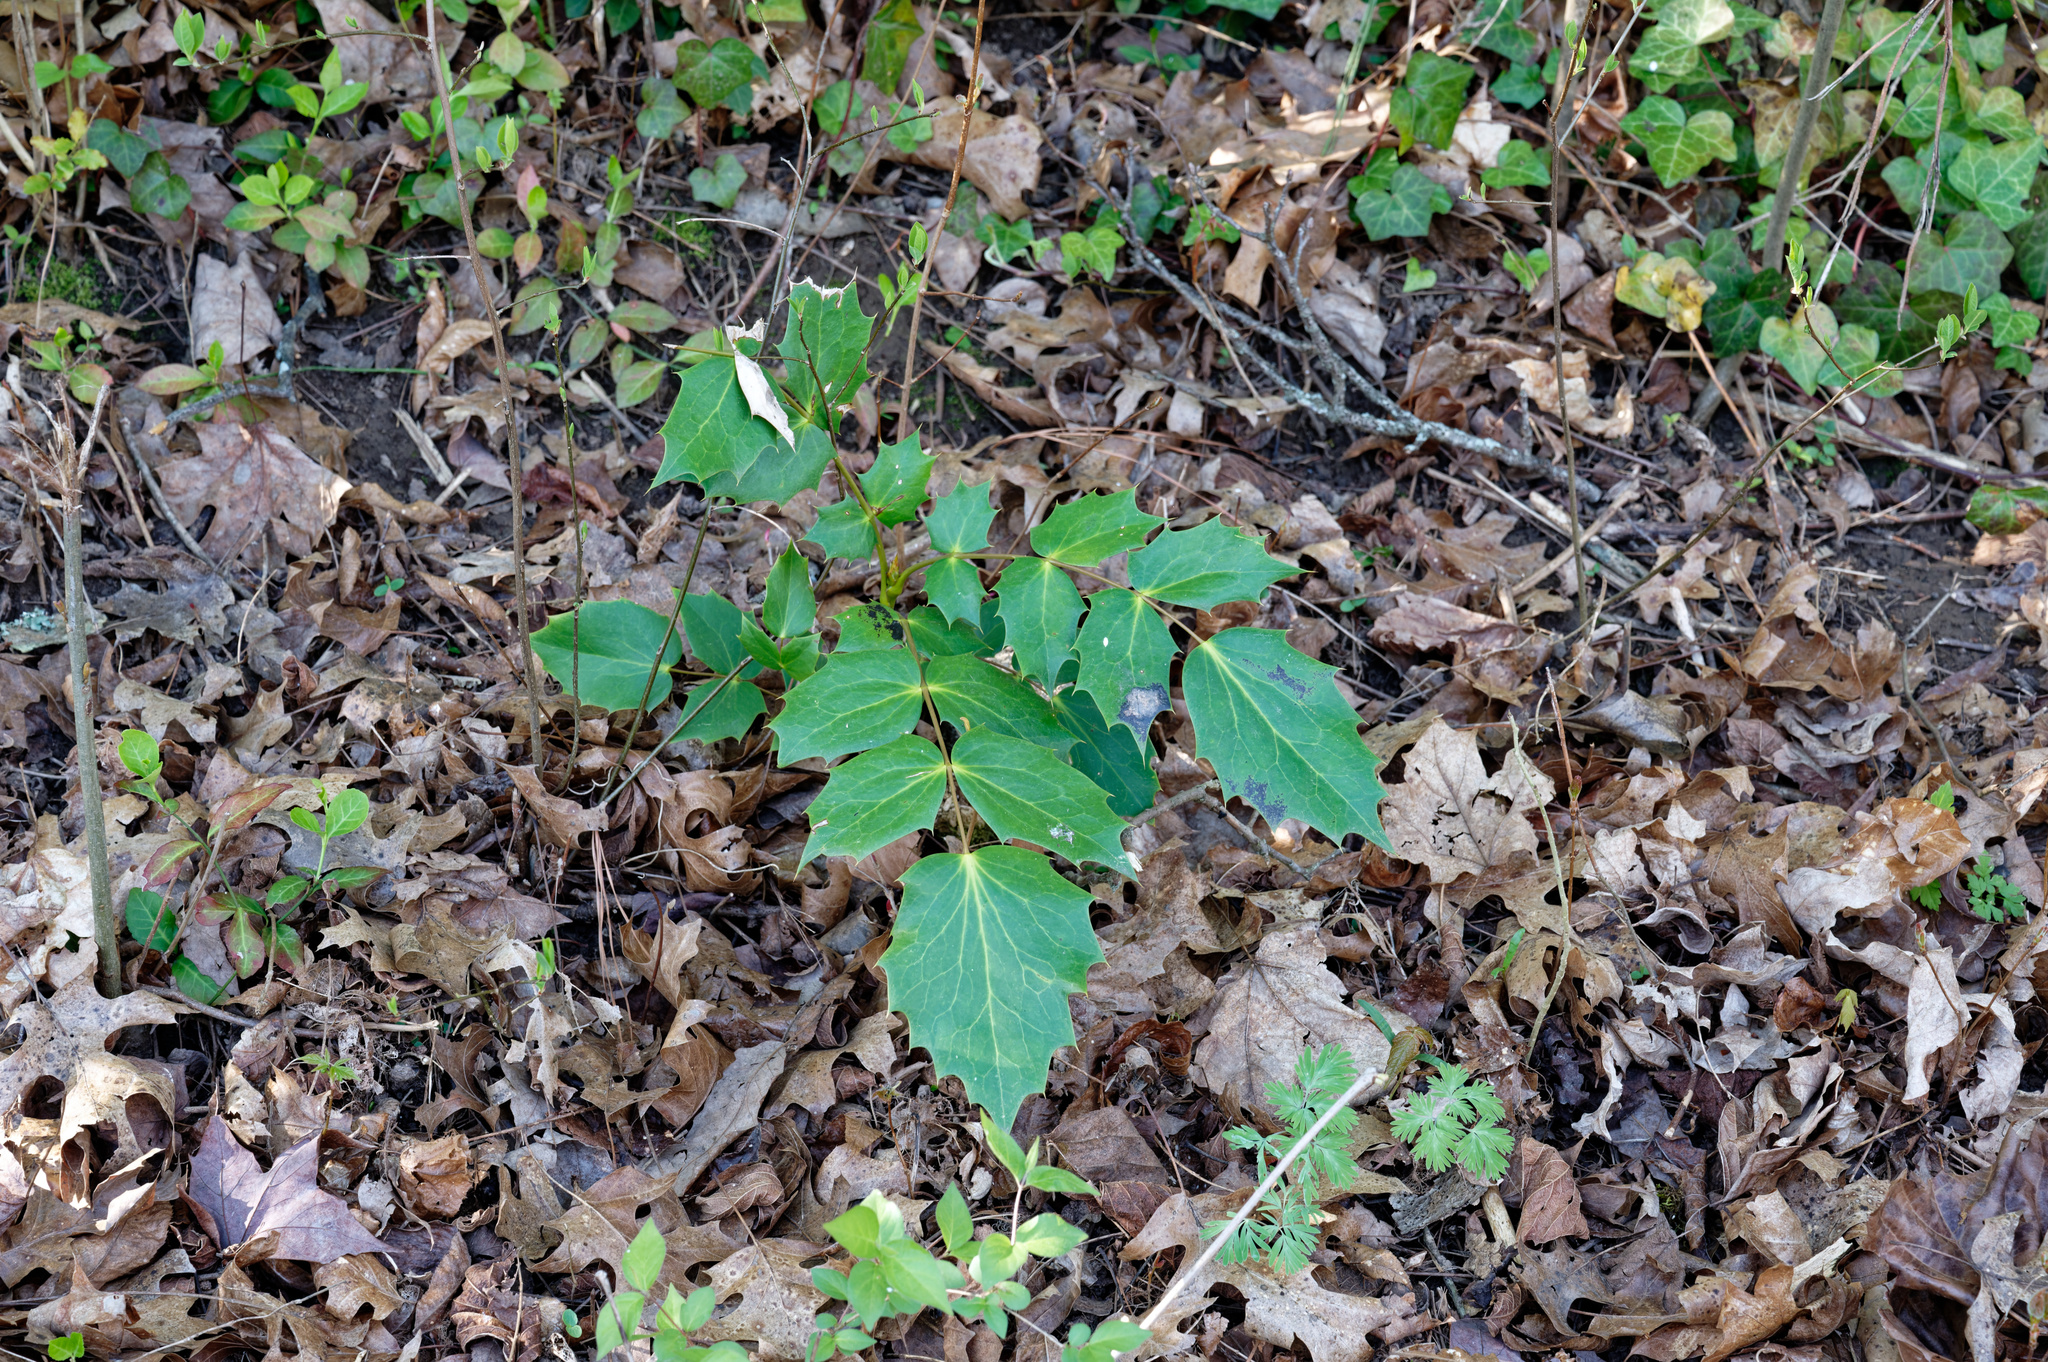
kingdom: Plantae
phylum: Tracheophyta
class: Magnoliopsida
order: Ranunculales
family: Berberidaceae
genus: Mahonia
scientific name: Mahonia bealei
